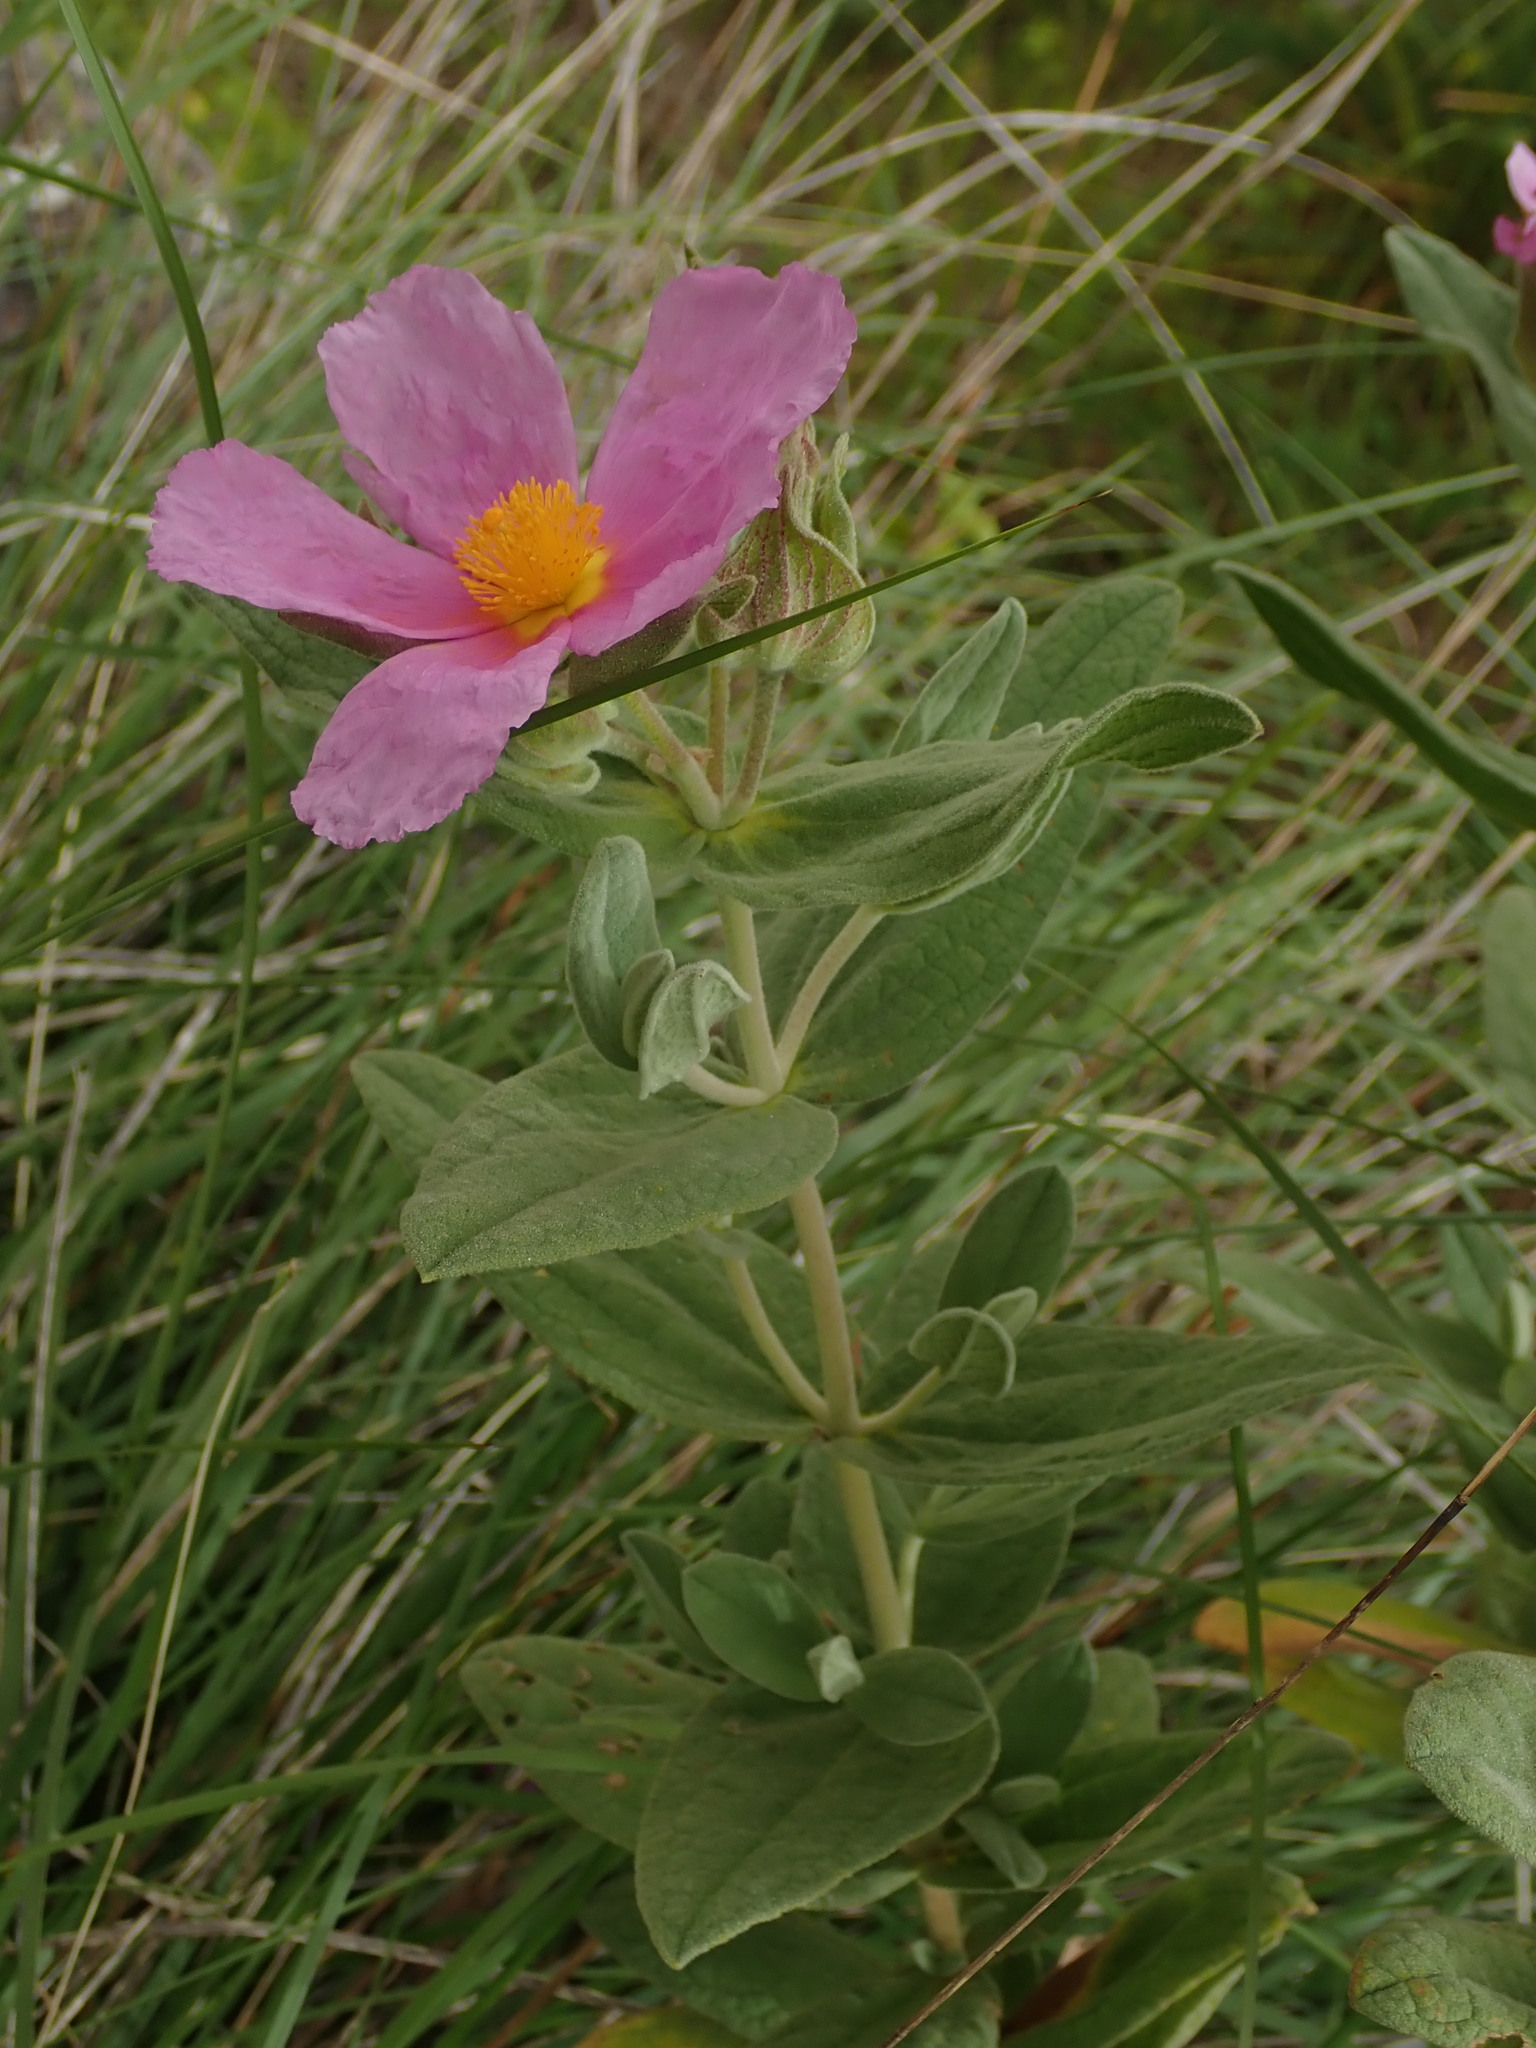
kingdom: Plantae
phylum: Tracheophyta
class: Magnoliopsida
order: Malvales
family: Cistaceae
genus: Cistus
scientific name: Cistus albidus
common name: White-leaf rock-rose
